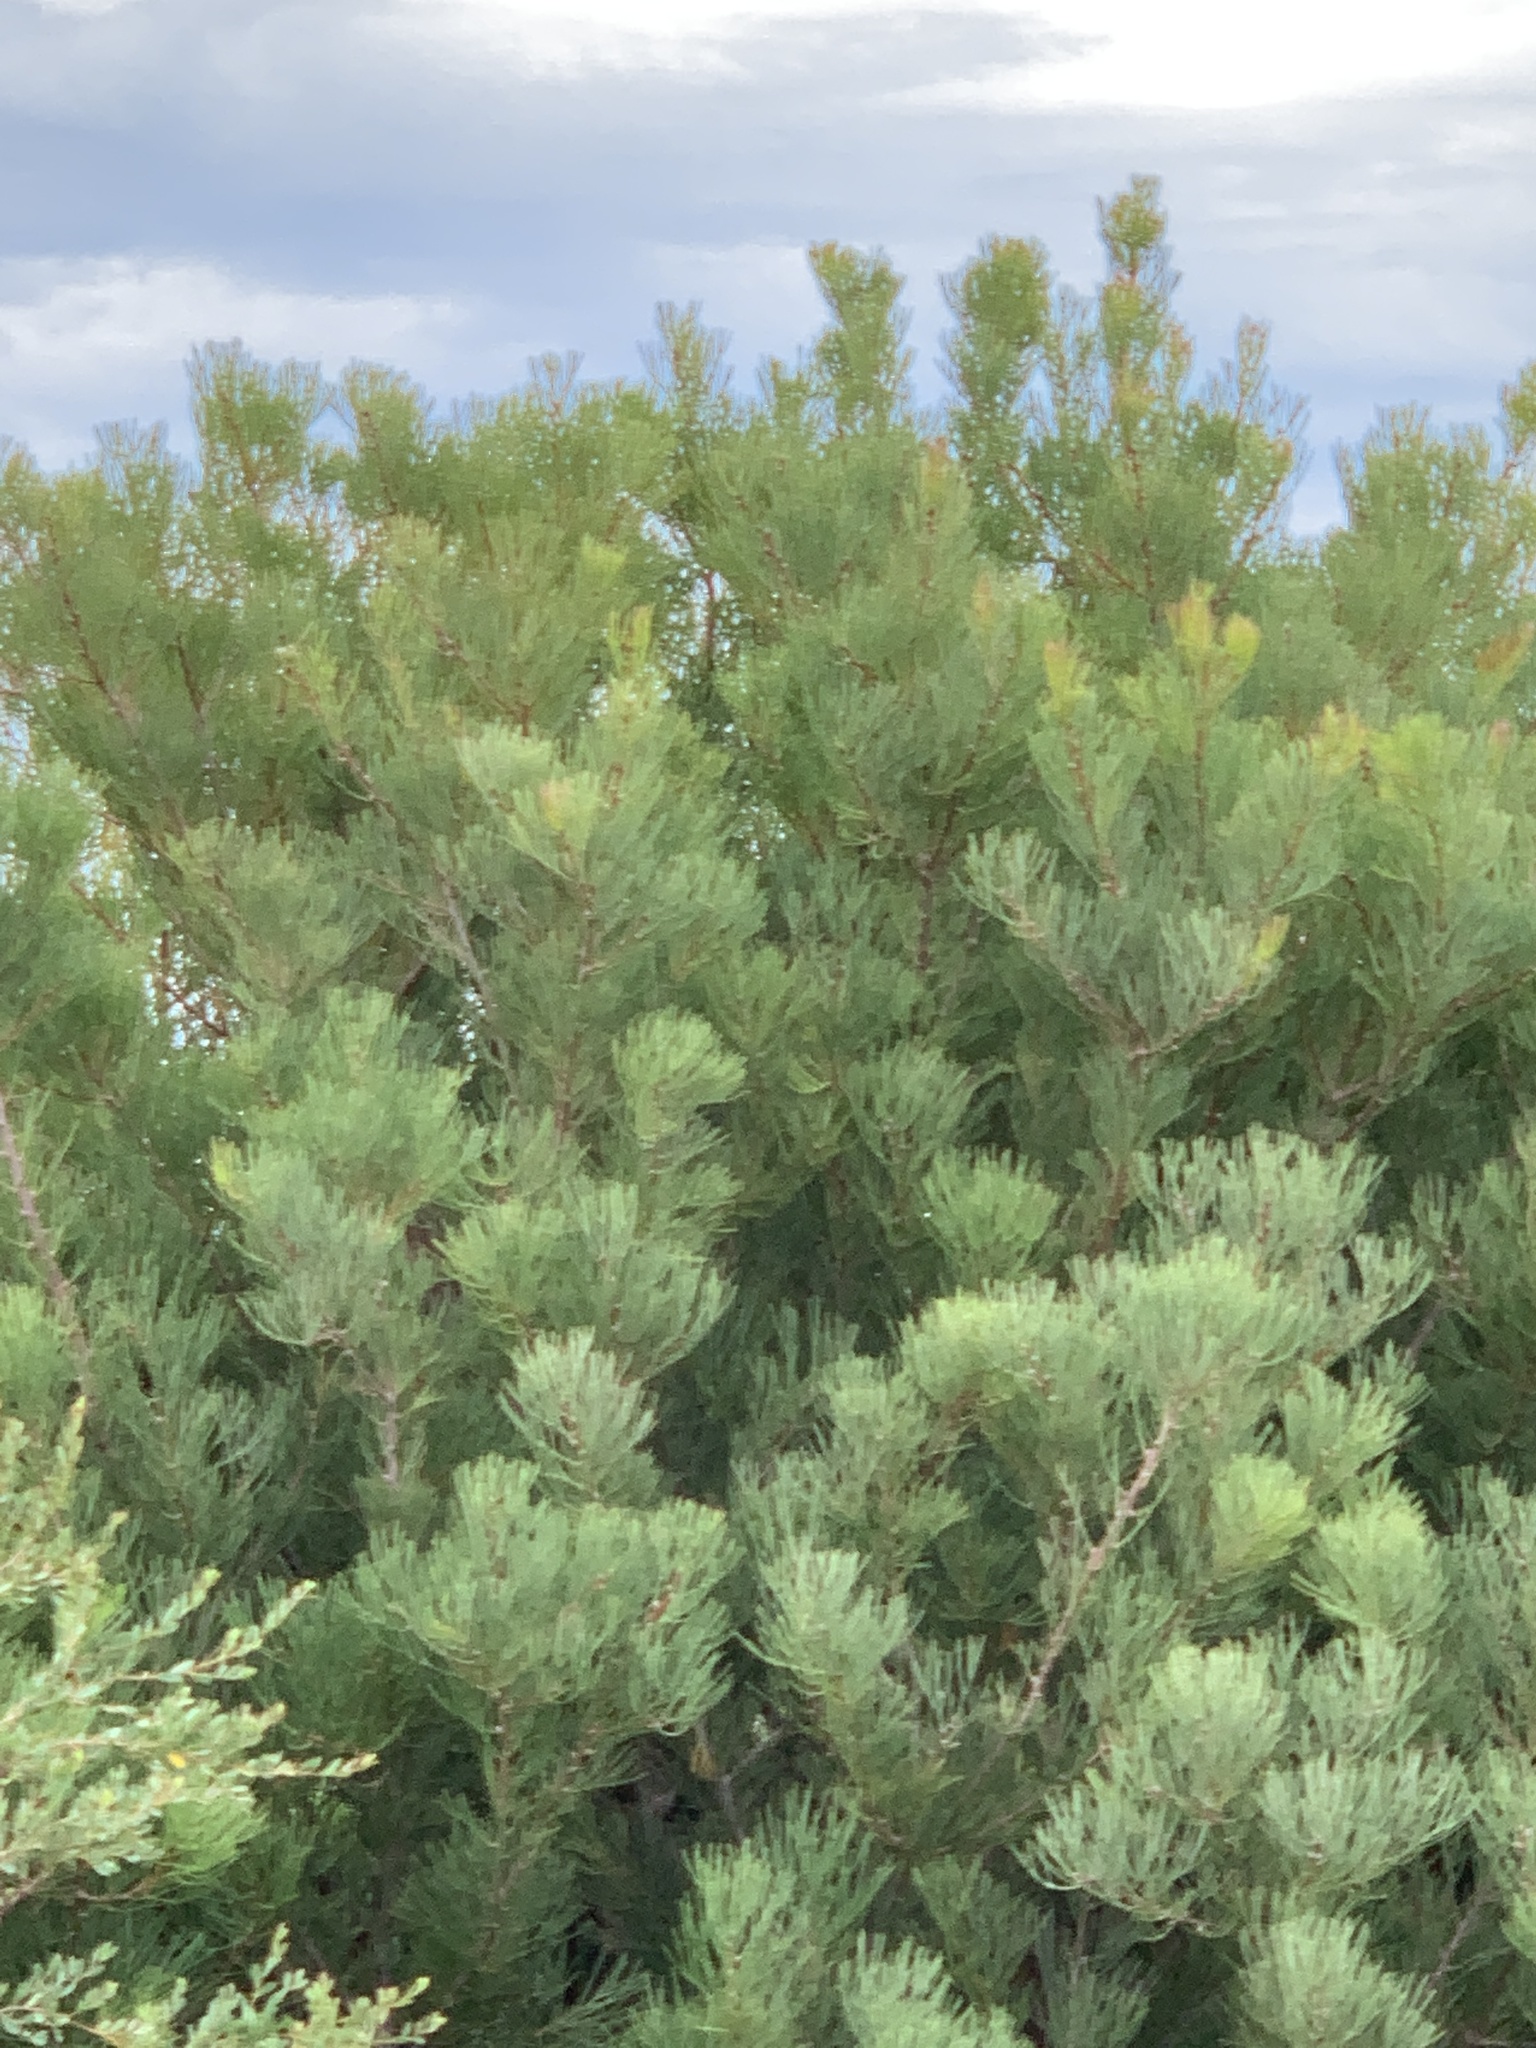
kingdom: Plantae
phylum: Tracheophyta
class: Magnoliopsida
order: Proteales
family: Proteaceae
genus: Hakea
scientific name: Hakea drupacea
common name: Sweet hakea
